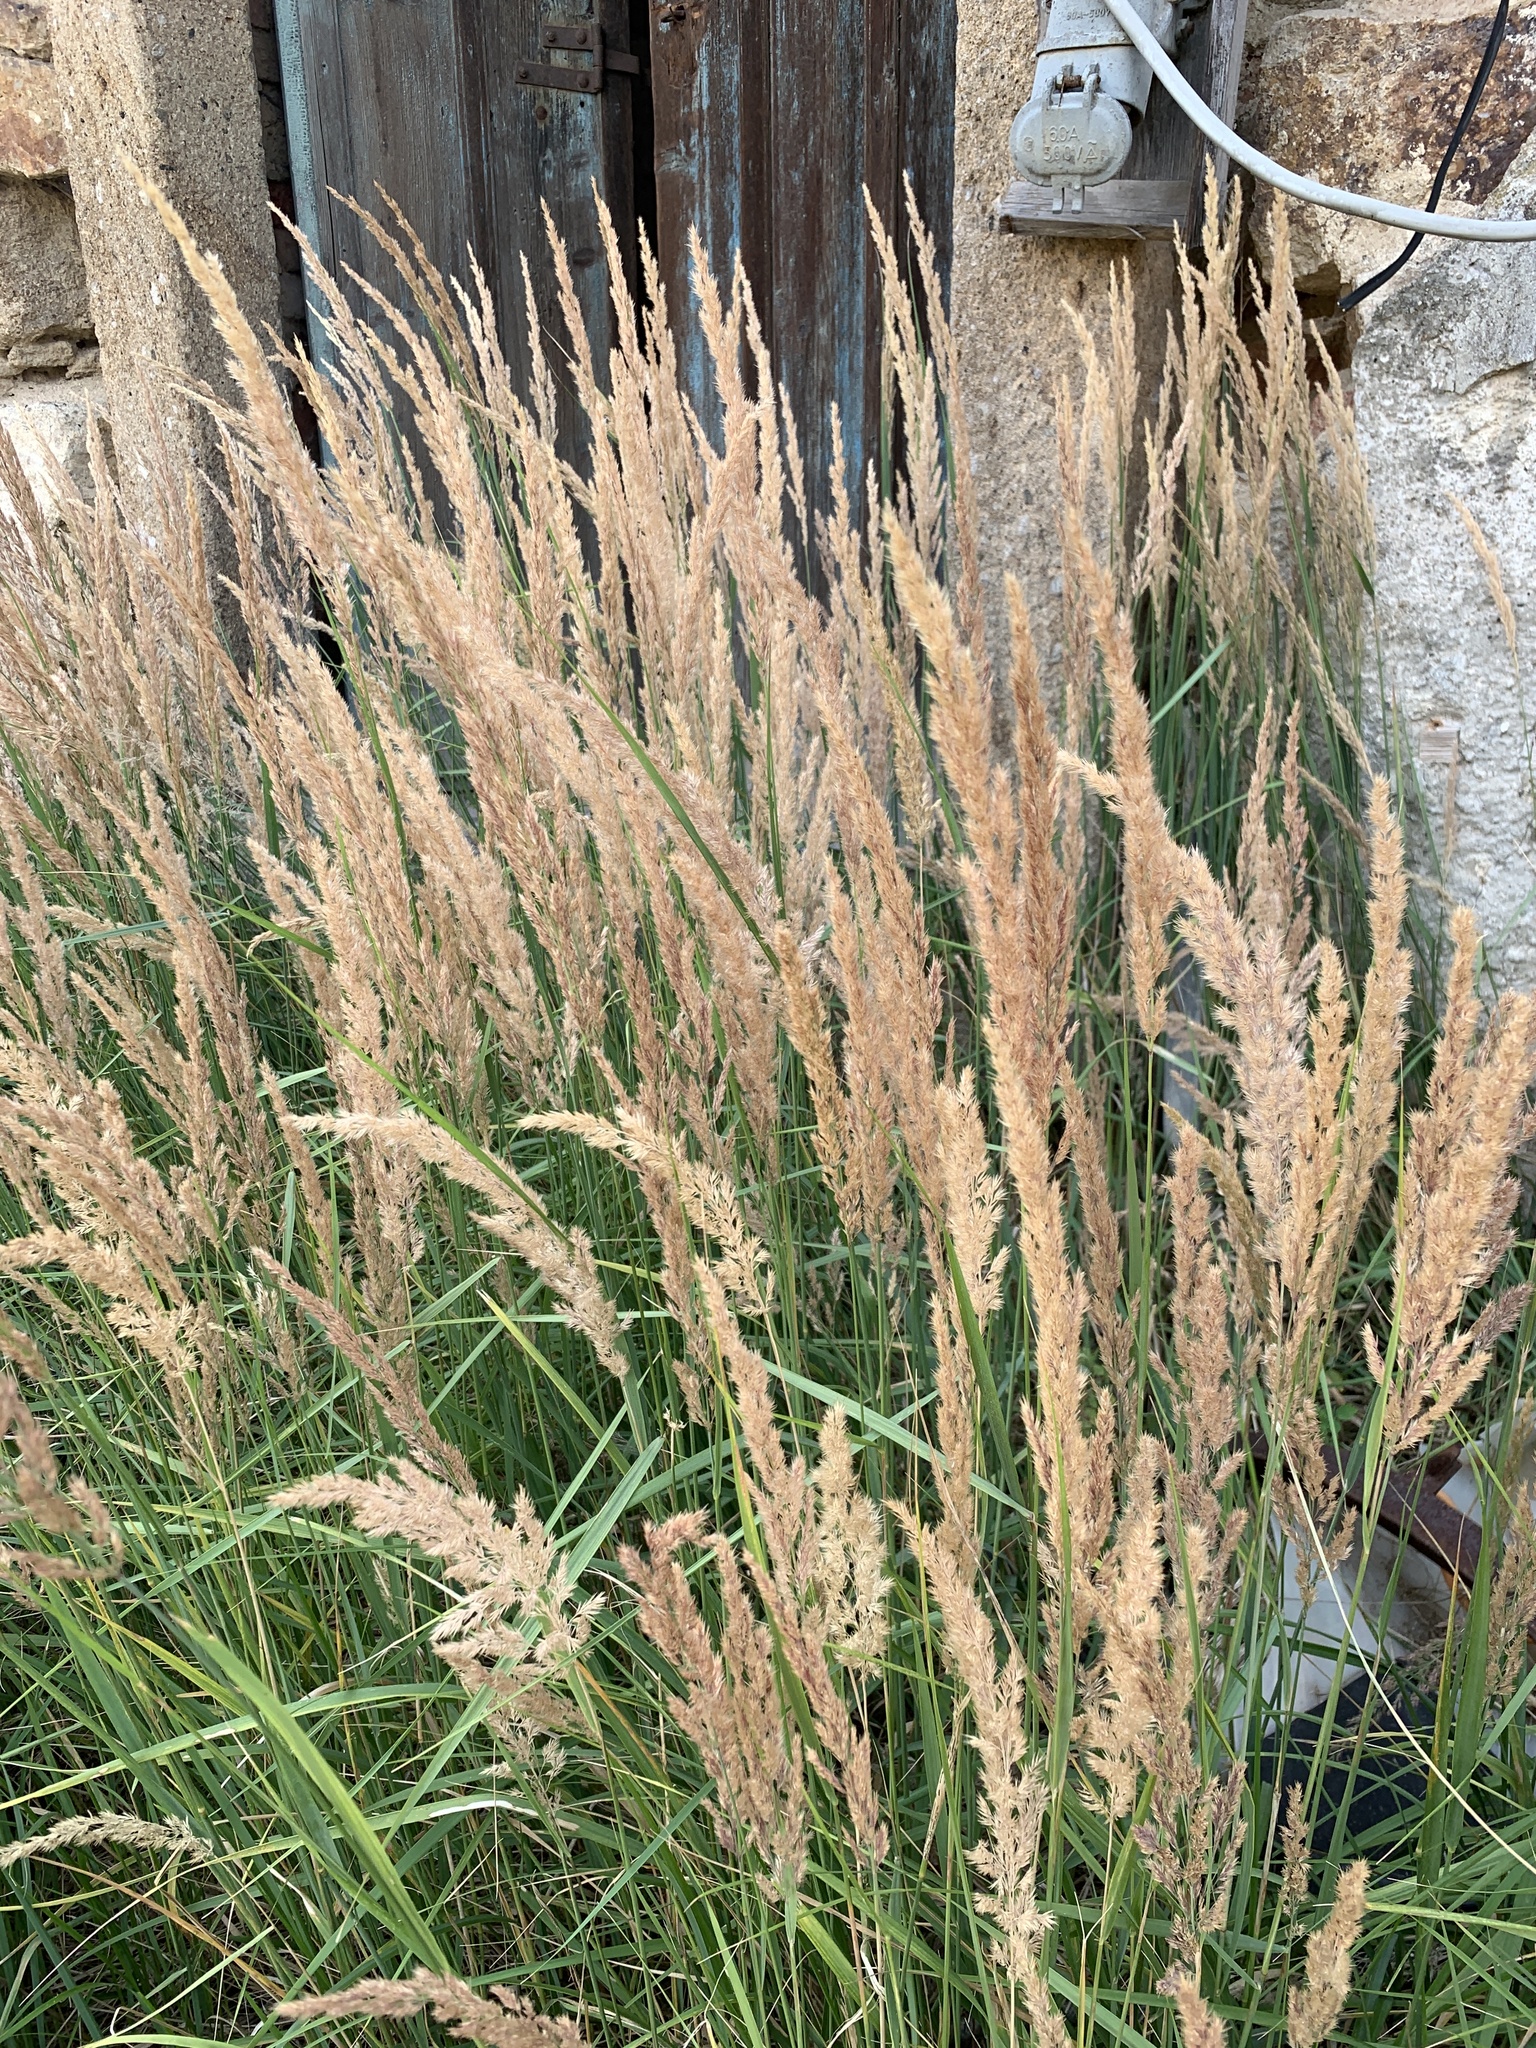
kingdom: Plantae
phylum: Tracheophyta
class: Liliopsida
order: Poales
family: Poaceae
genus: Calamagrostis
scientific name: Calamagrostis epigejos
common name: Wood small-reed
